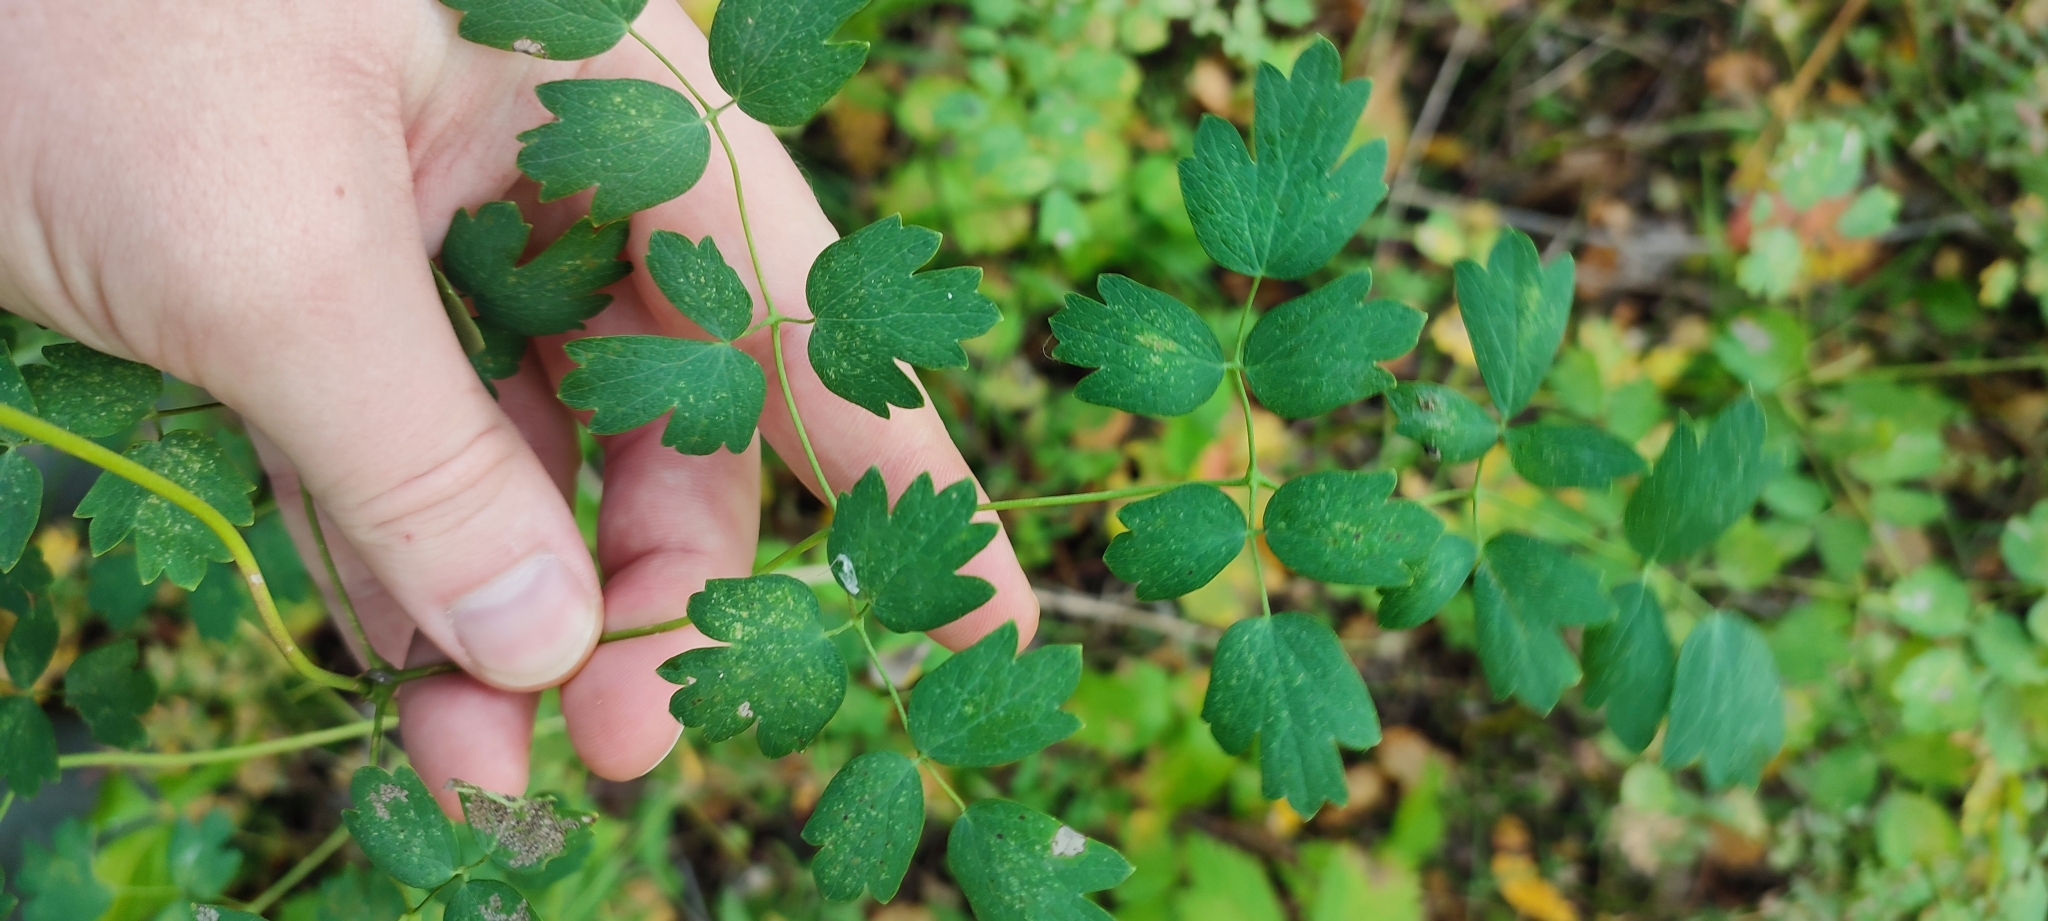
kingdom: Plantae
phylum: Tracheophyta
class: Magnoliopsida
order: Ranunculales
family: Ranunculaceae
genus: Thalictrum
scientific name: Thalictrum minus
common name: Lesser meadow-rue
